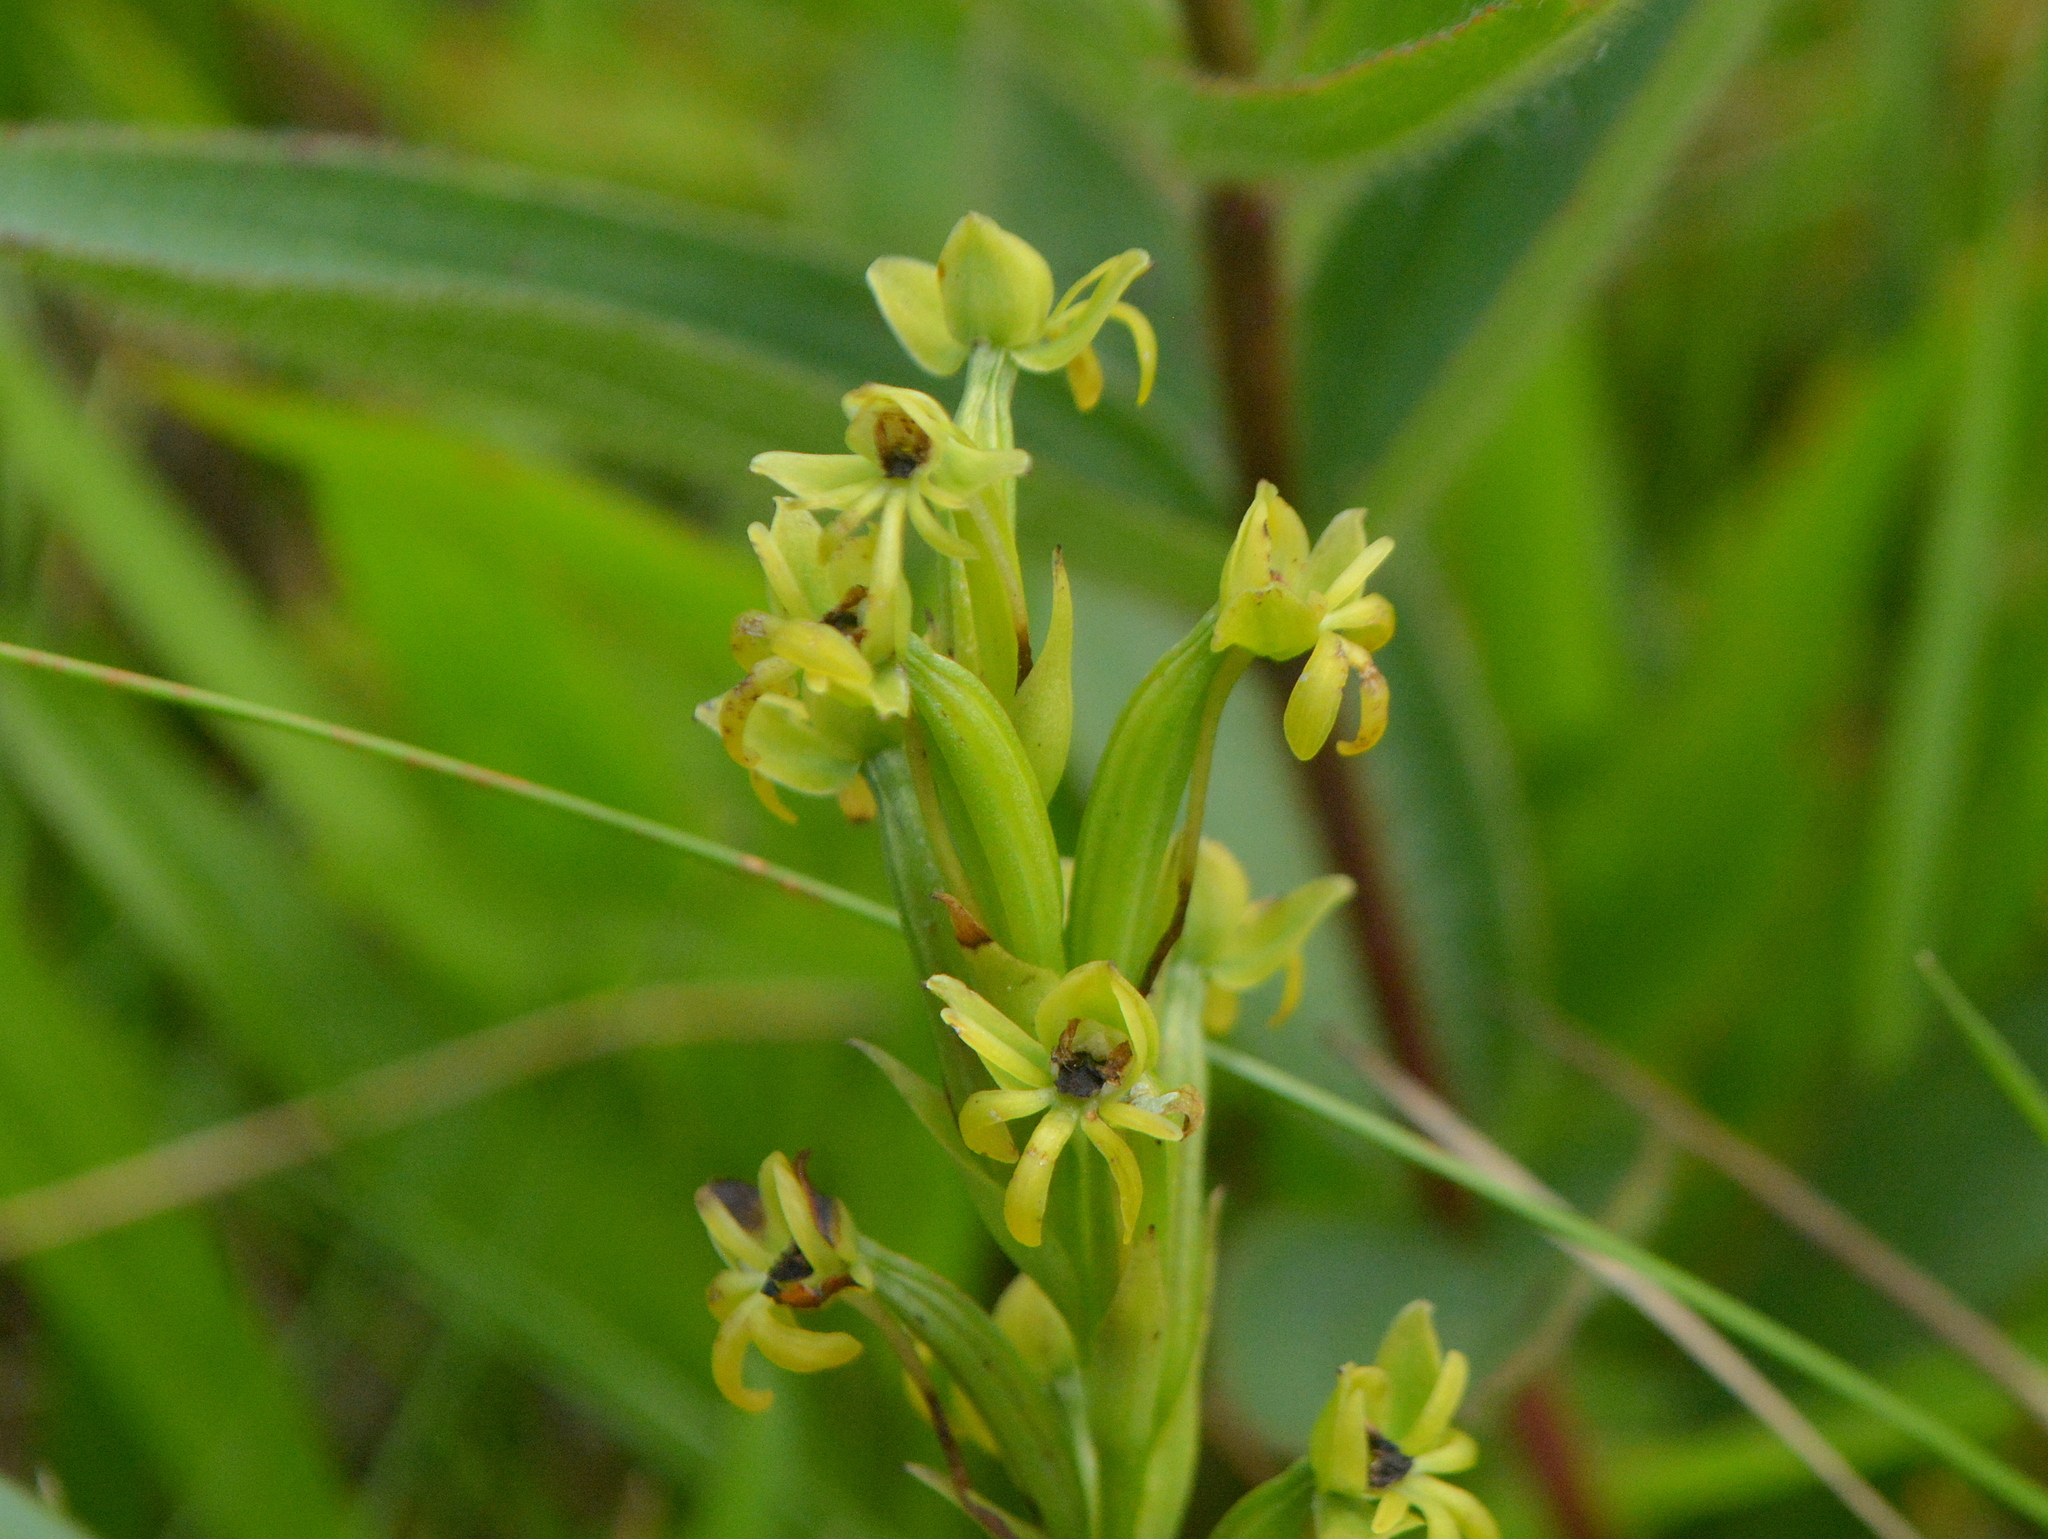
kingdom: Plantae
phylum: Tracheophyta
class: Liliopsida
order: Asparagales
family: Orchidaceae
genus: Habenaria
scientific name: Habenaria pentadactyla
